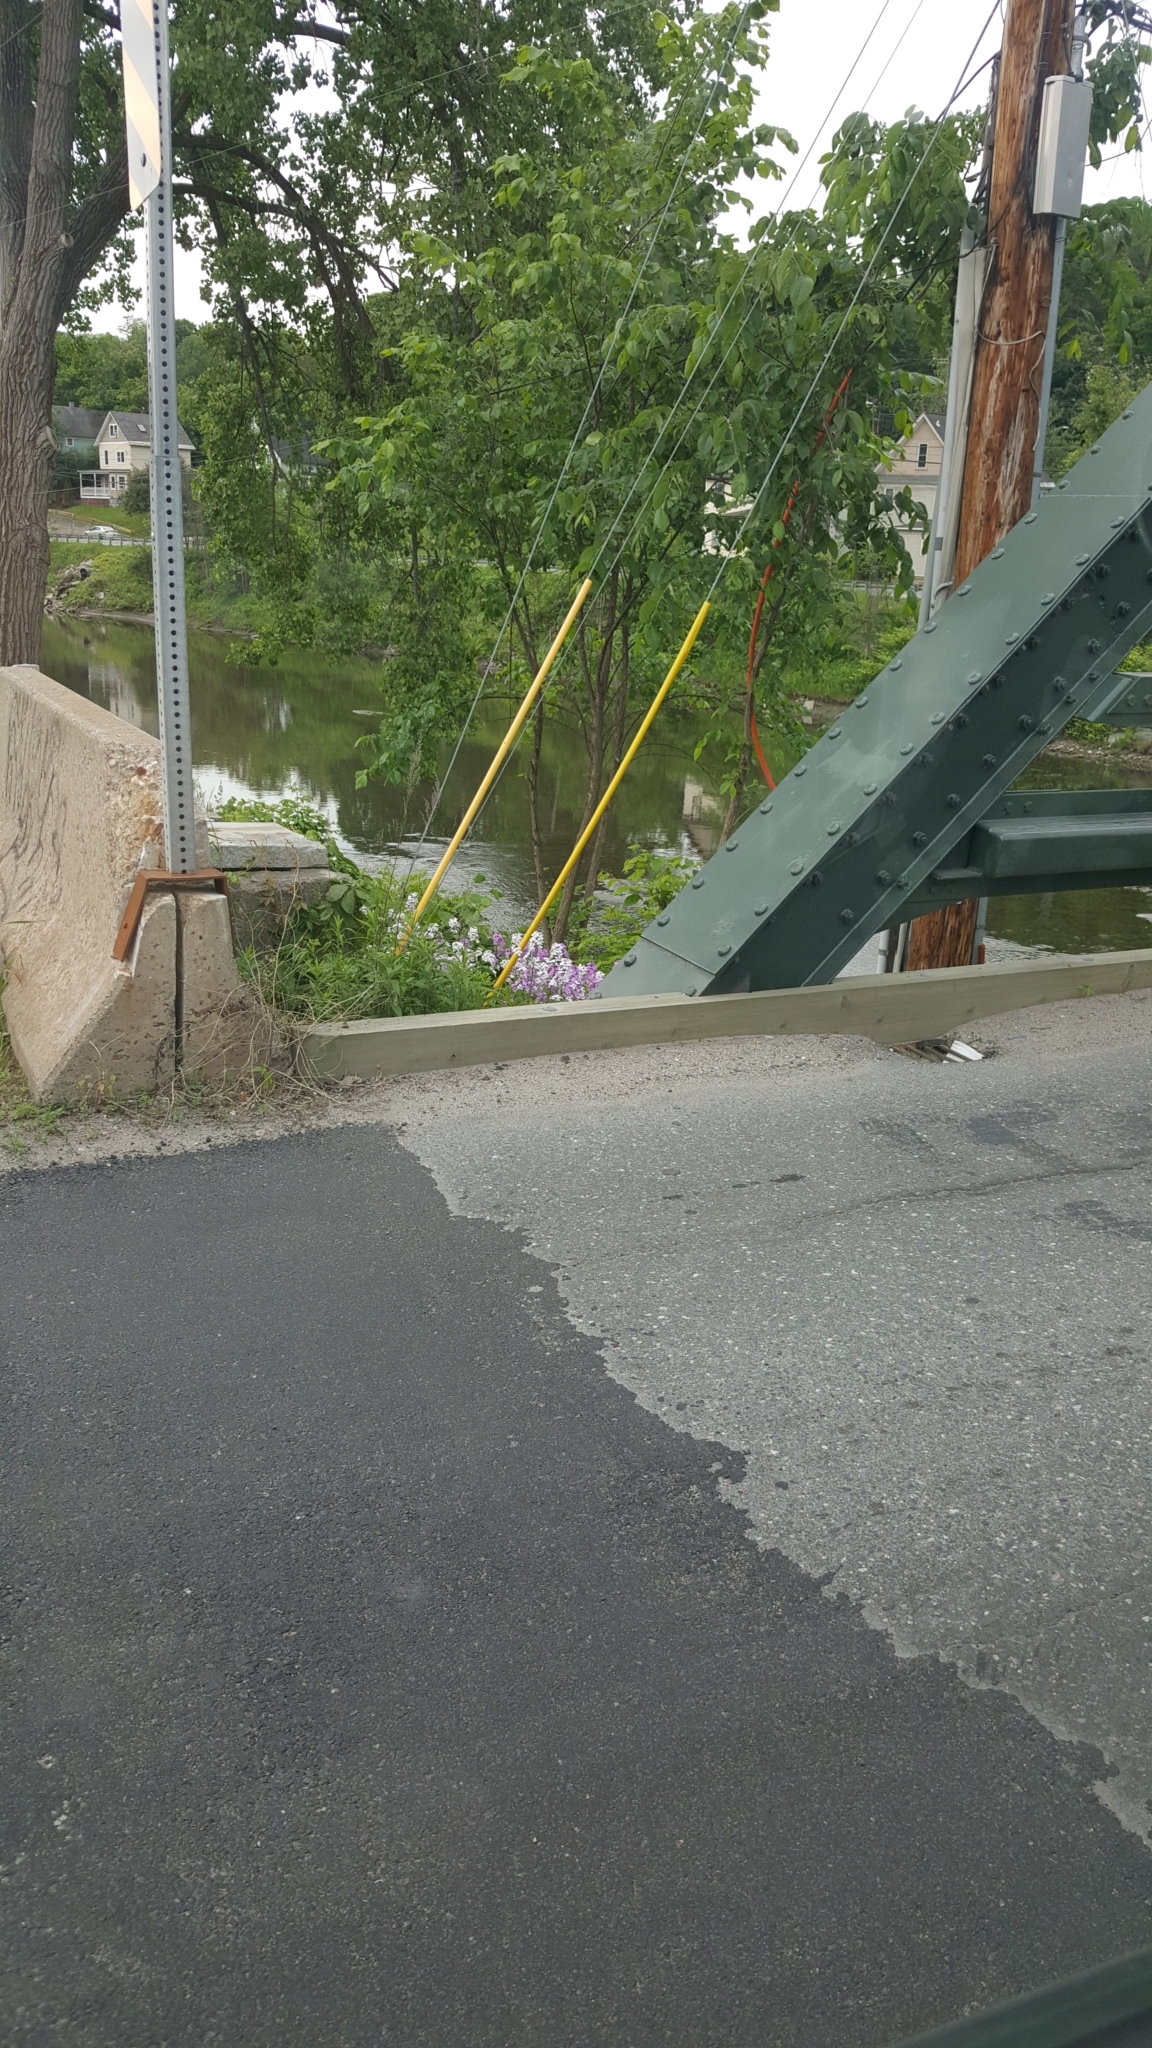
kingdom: Plantae
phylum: Tracheophyta
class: Magnoliopsida
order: Brassicales
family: Brassicaceae
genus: Hesperis
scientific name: Hesperis matronalis
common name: Dame's-violet
